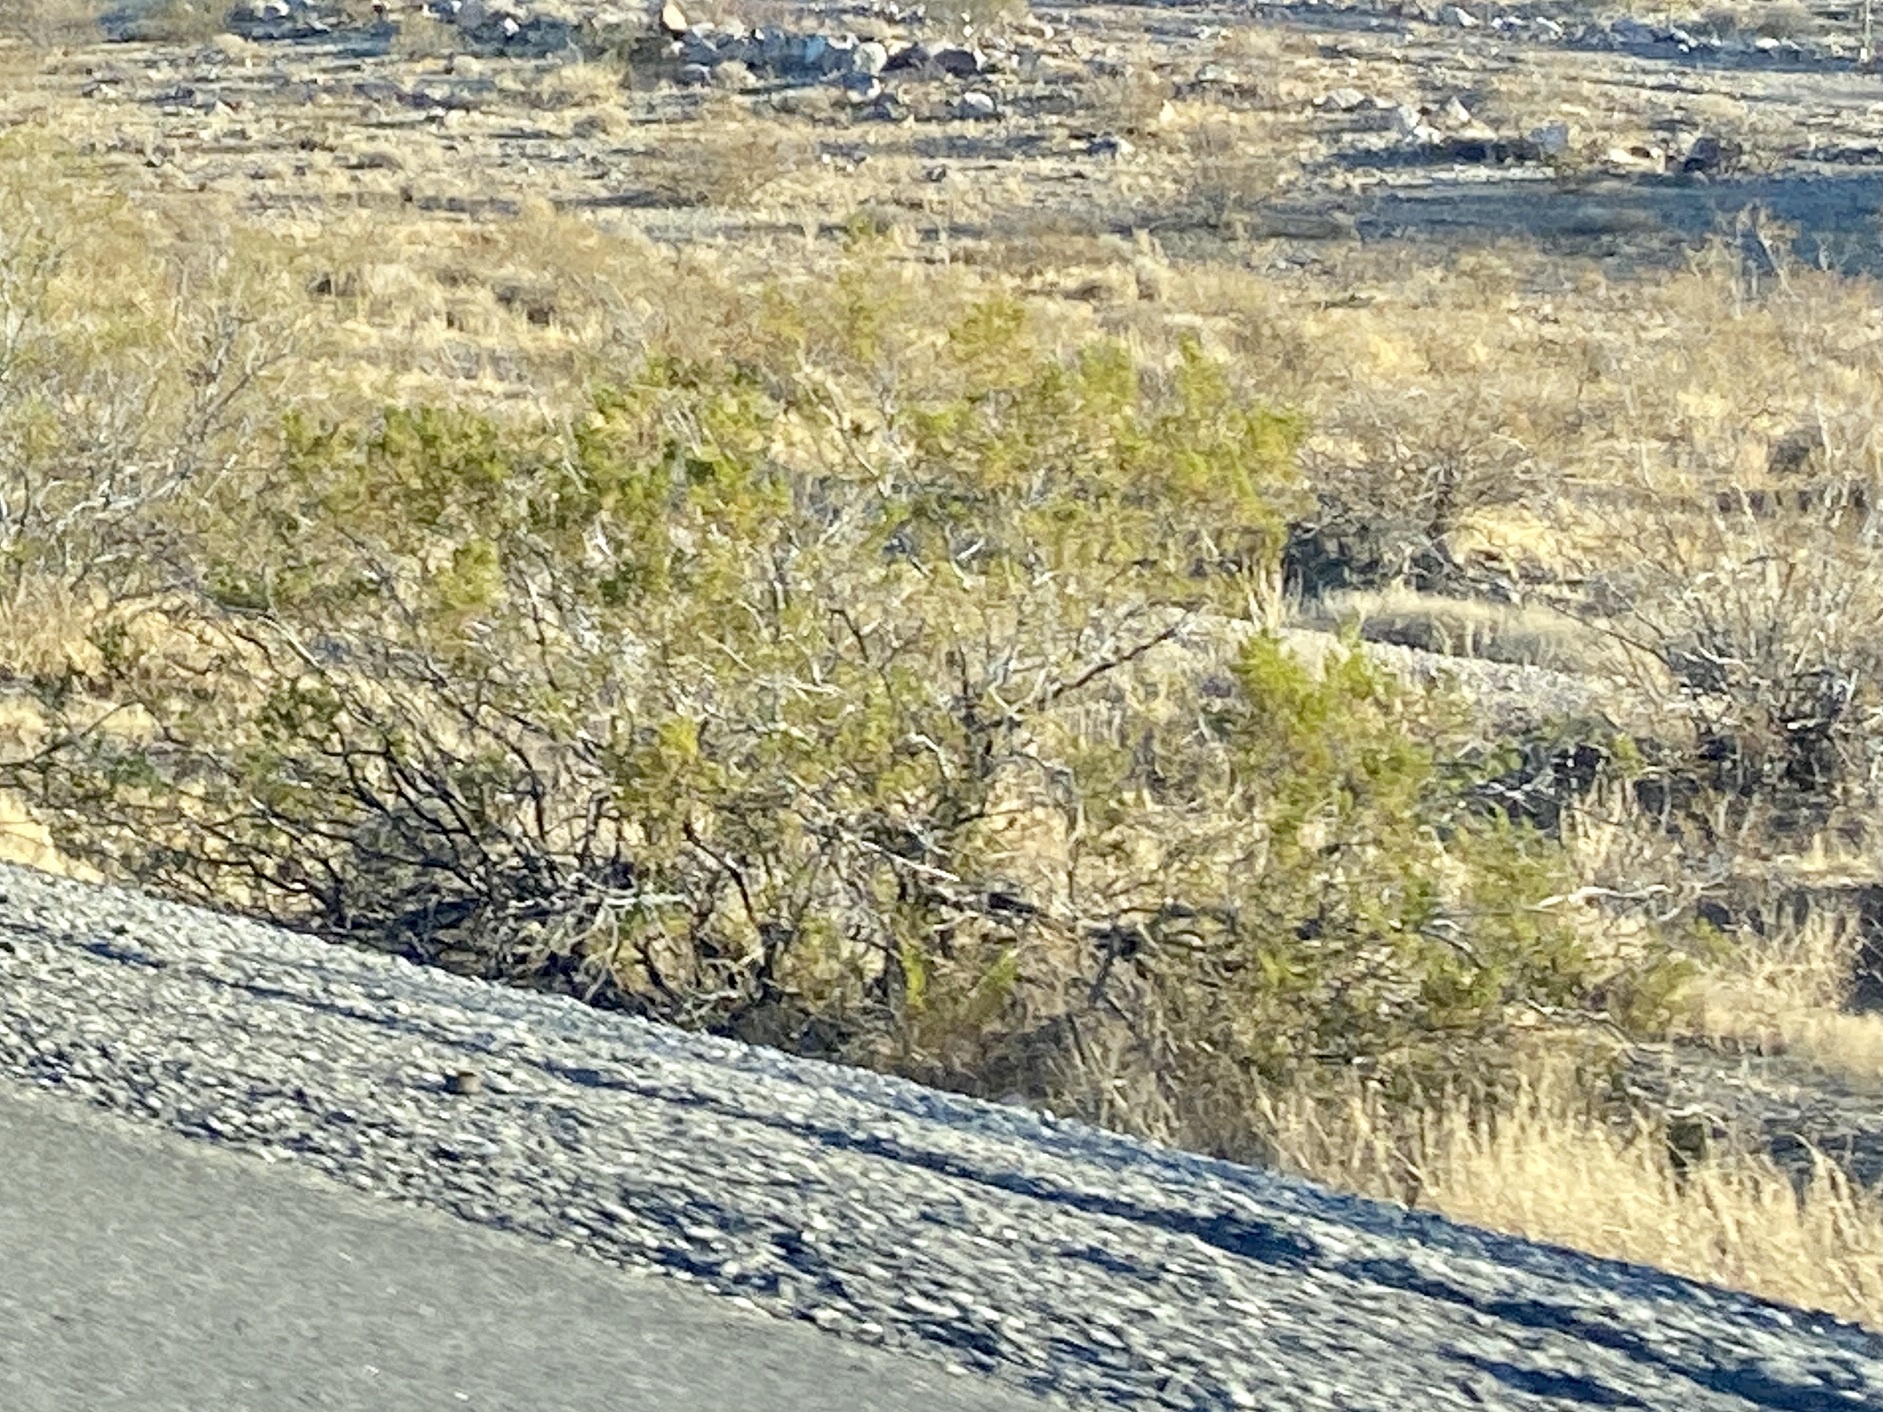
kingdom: Plantae
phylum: Tracheophyta
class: Magnoliopsida
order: Zygophyllales
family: Zygophyllaceae
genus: Larrea
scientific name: Larrea tridentata
